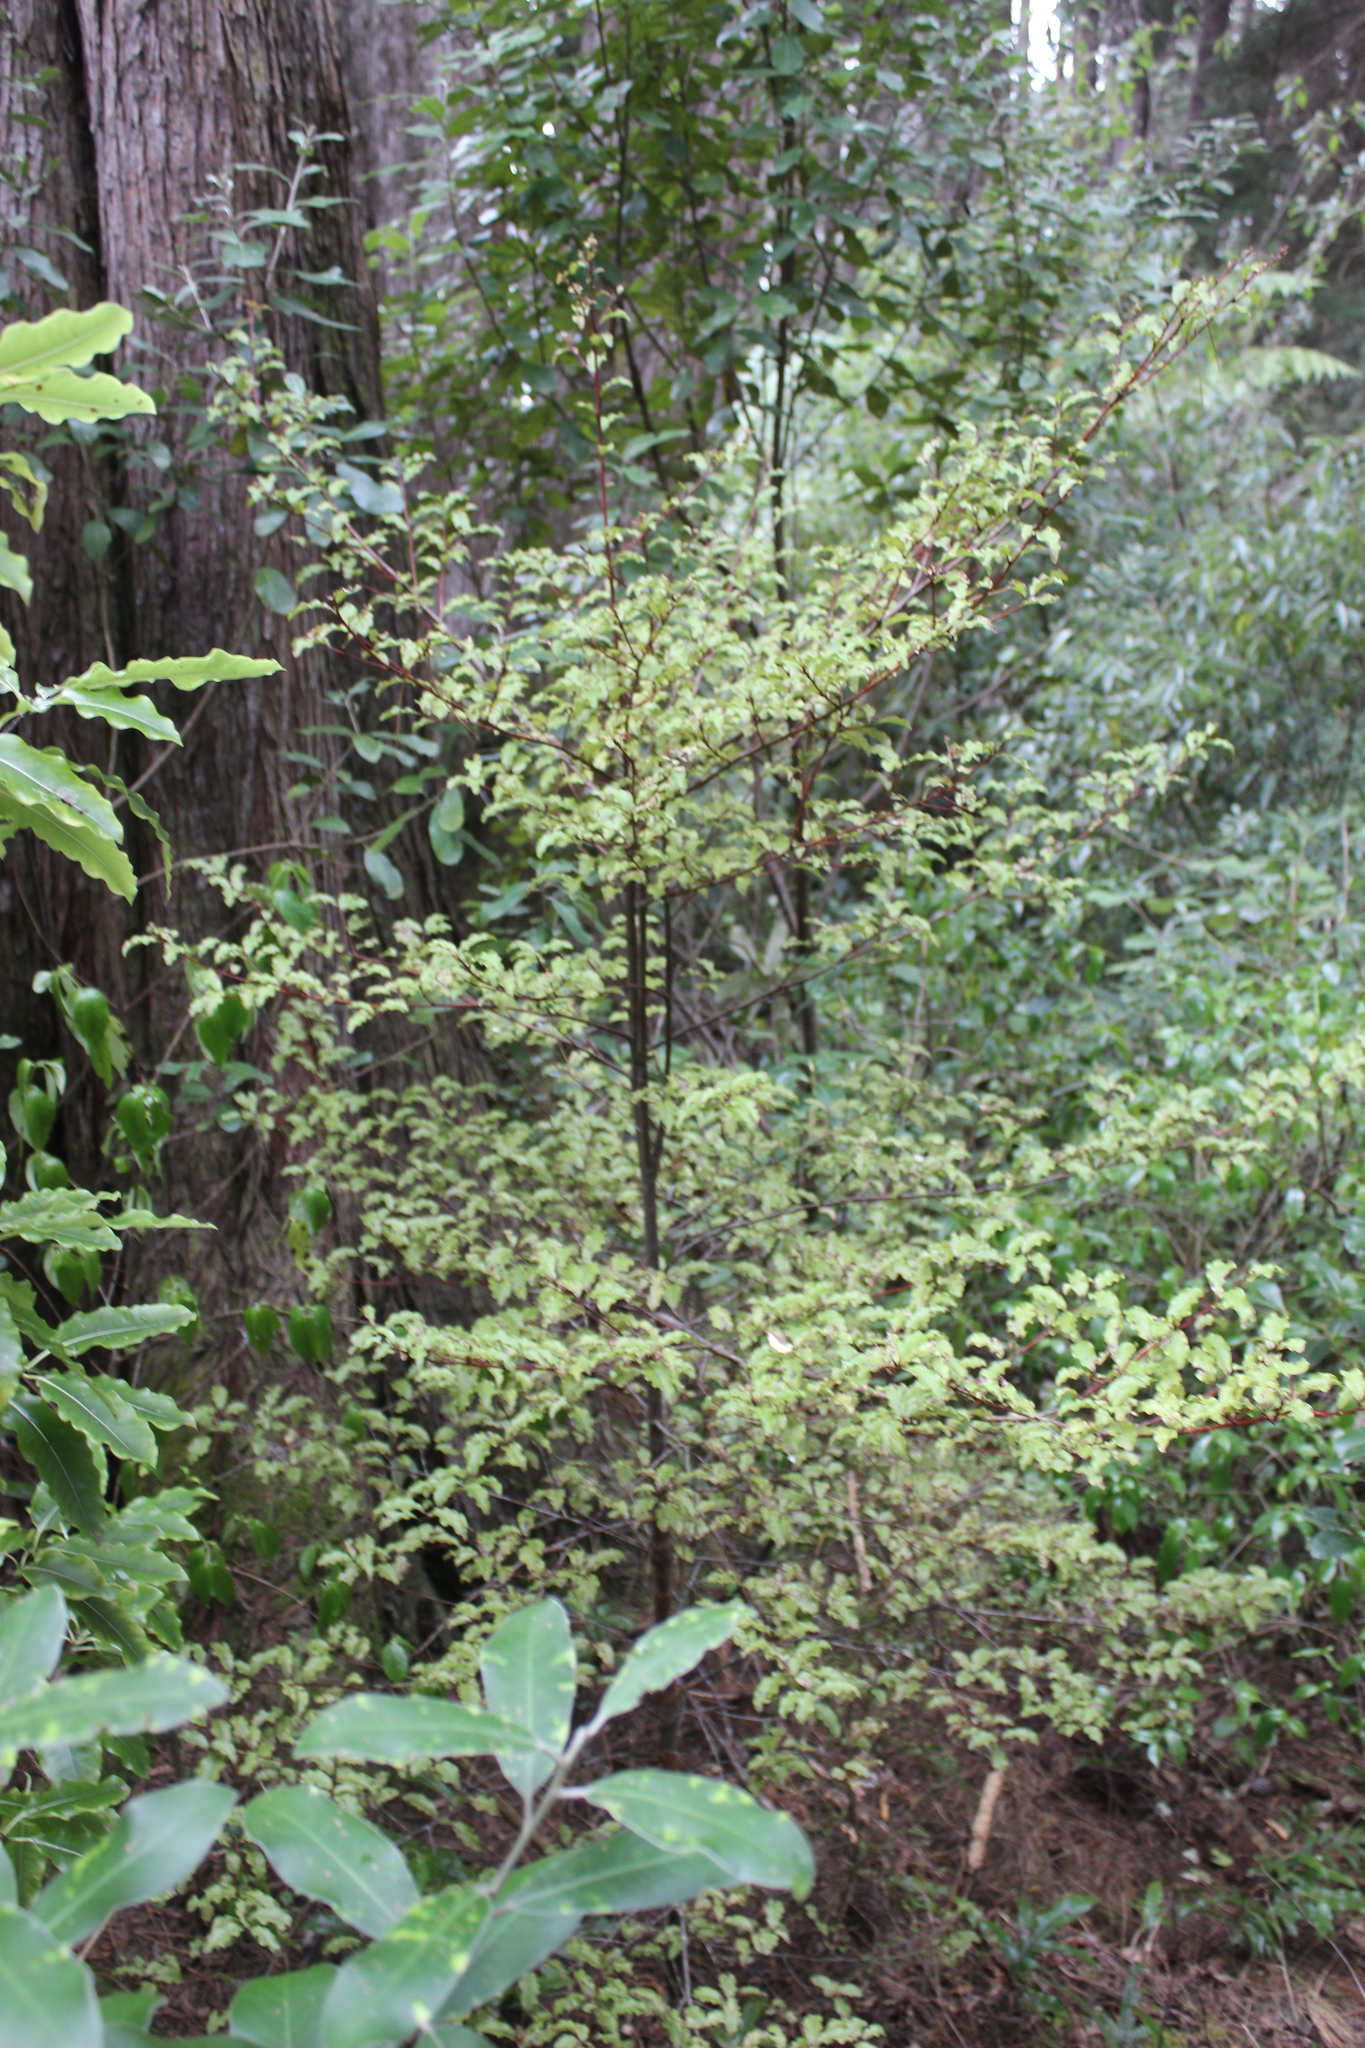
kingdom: Plantae
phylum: Tracheophyta
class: Magnoliopsida
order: Ericales
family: Primulaceae
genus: Myrsine
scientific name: Myrsine australis
